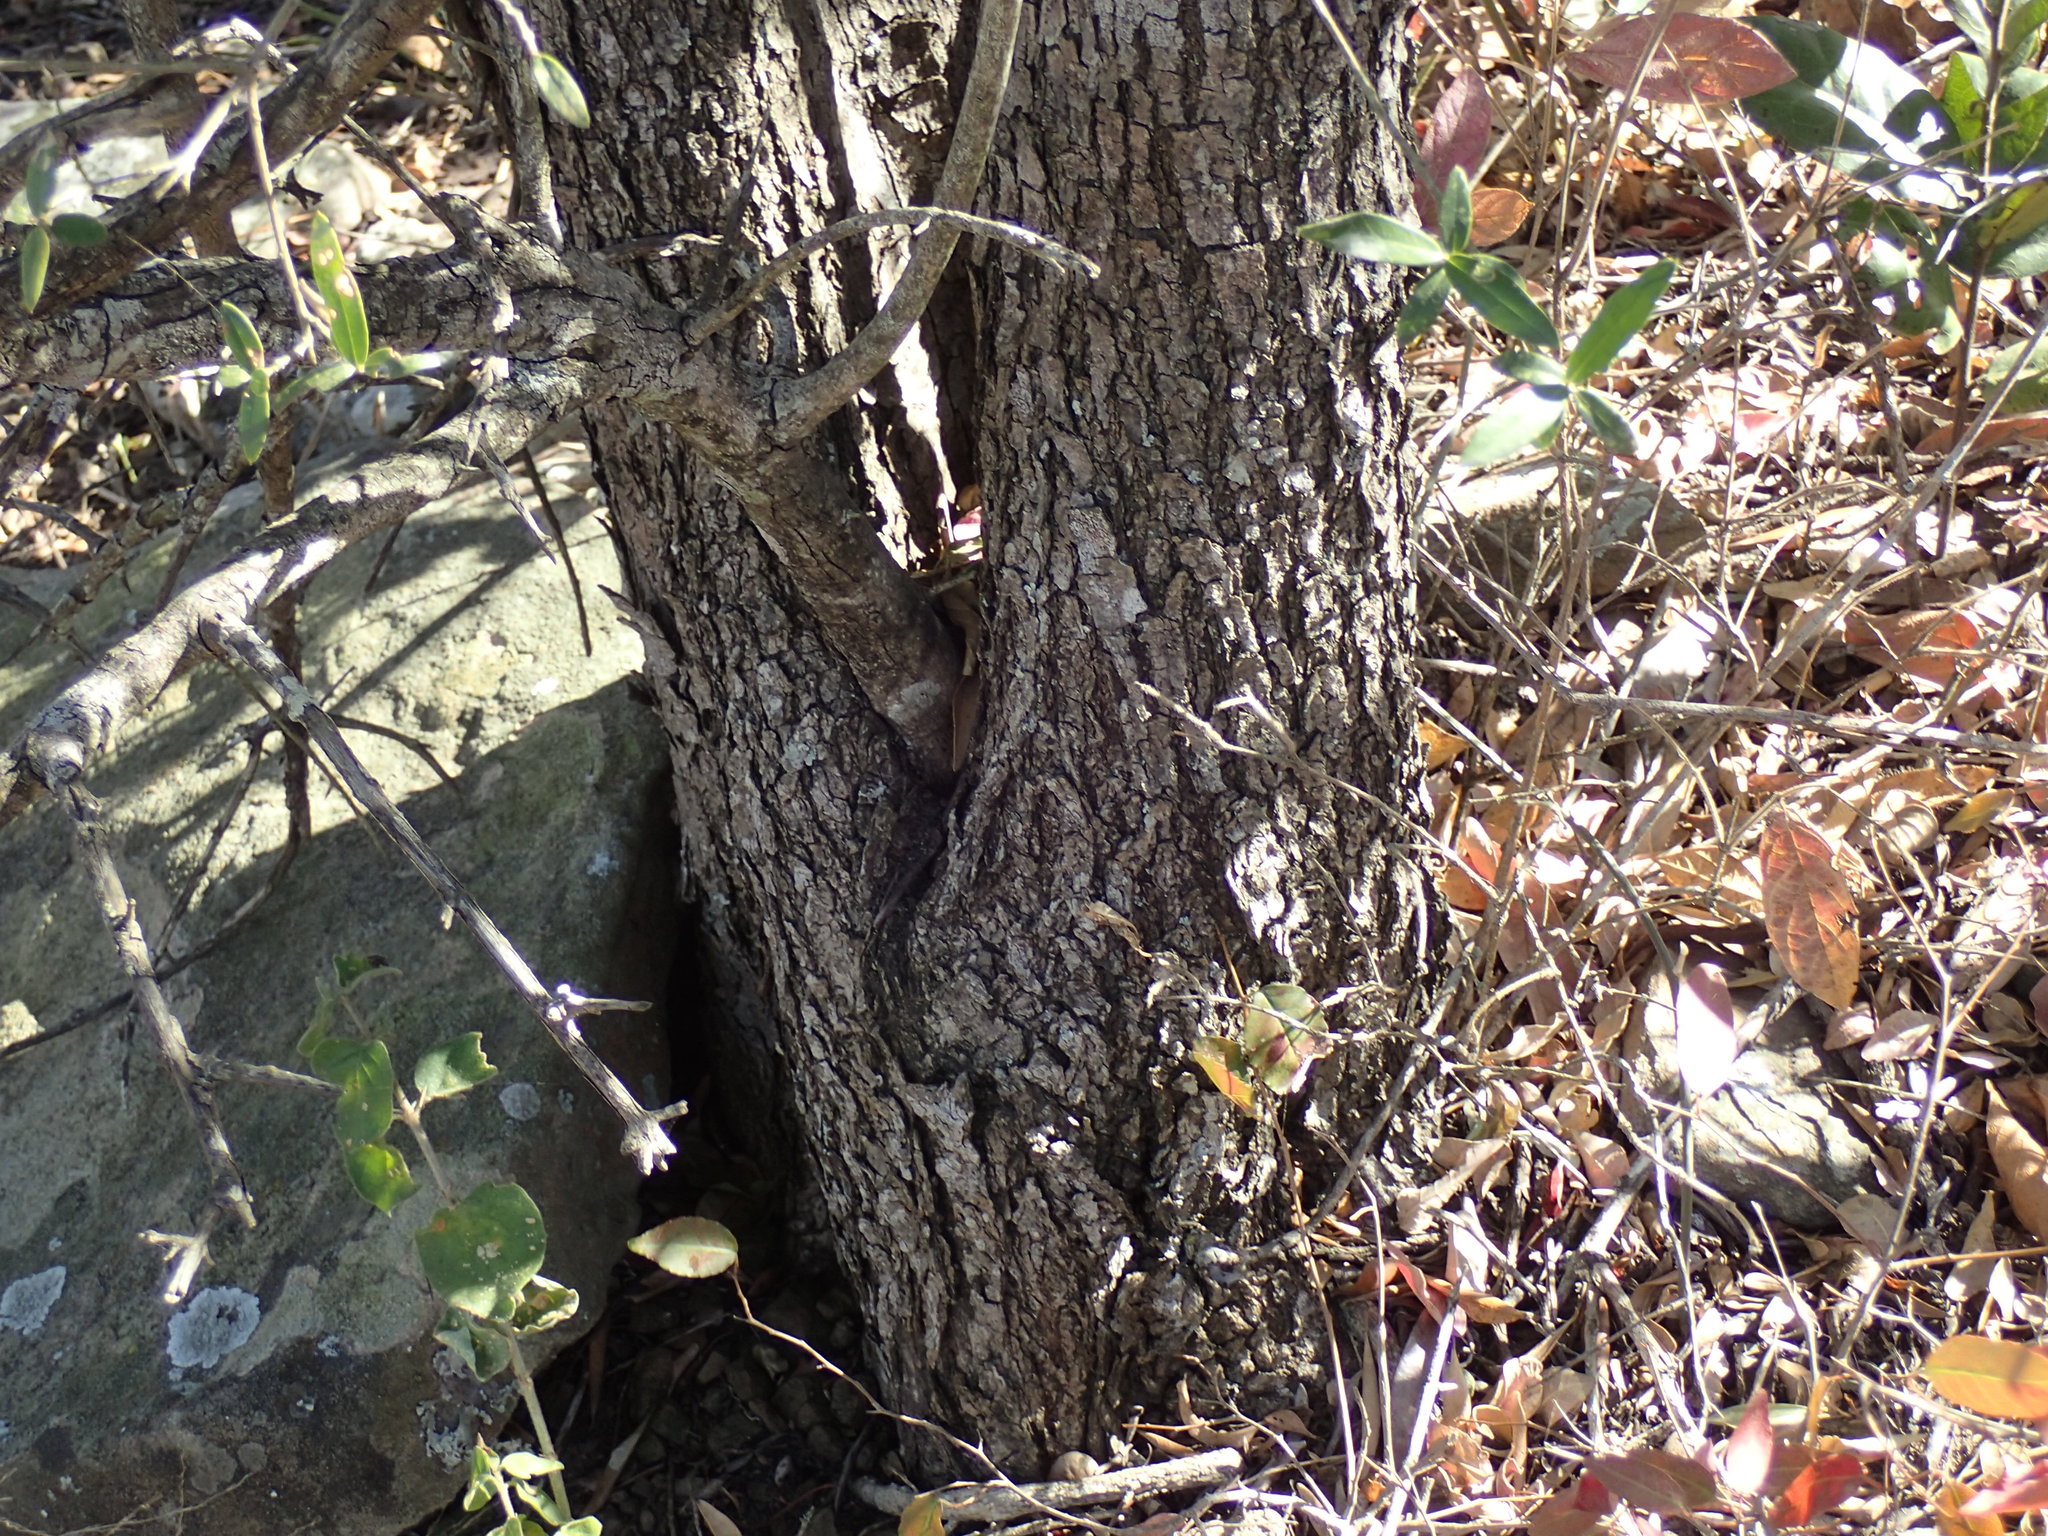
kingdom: Plantae
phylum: Tracheophyta
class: Magnoliopsida
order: Lamiales
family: Oleaceae
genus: Olea
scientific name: Olea europaea
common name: Olive
